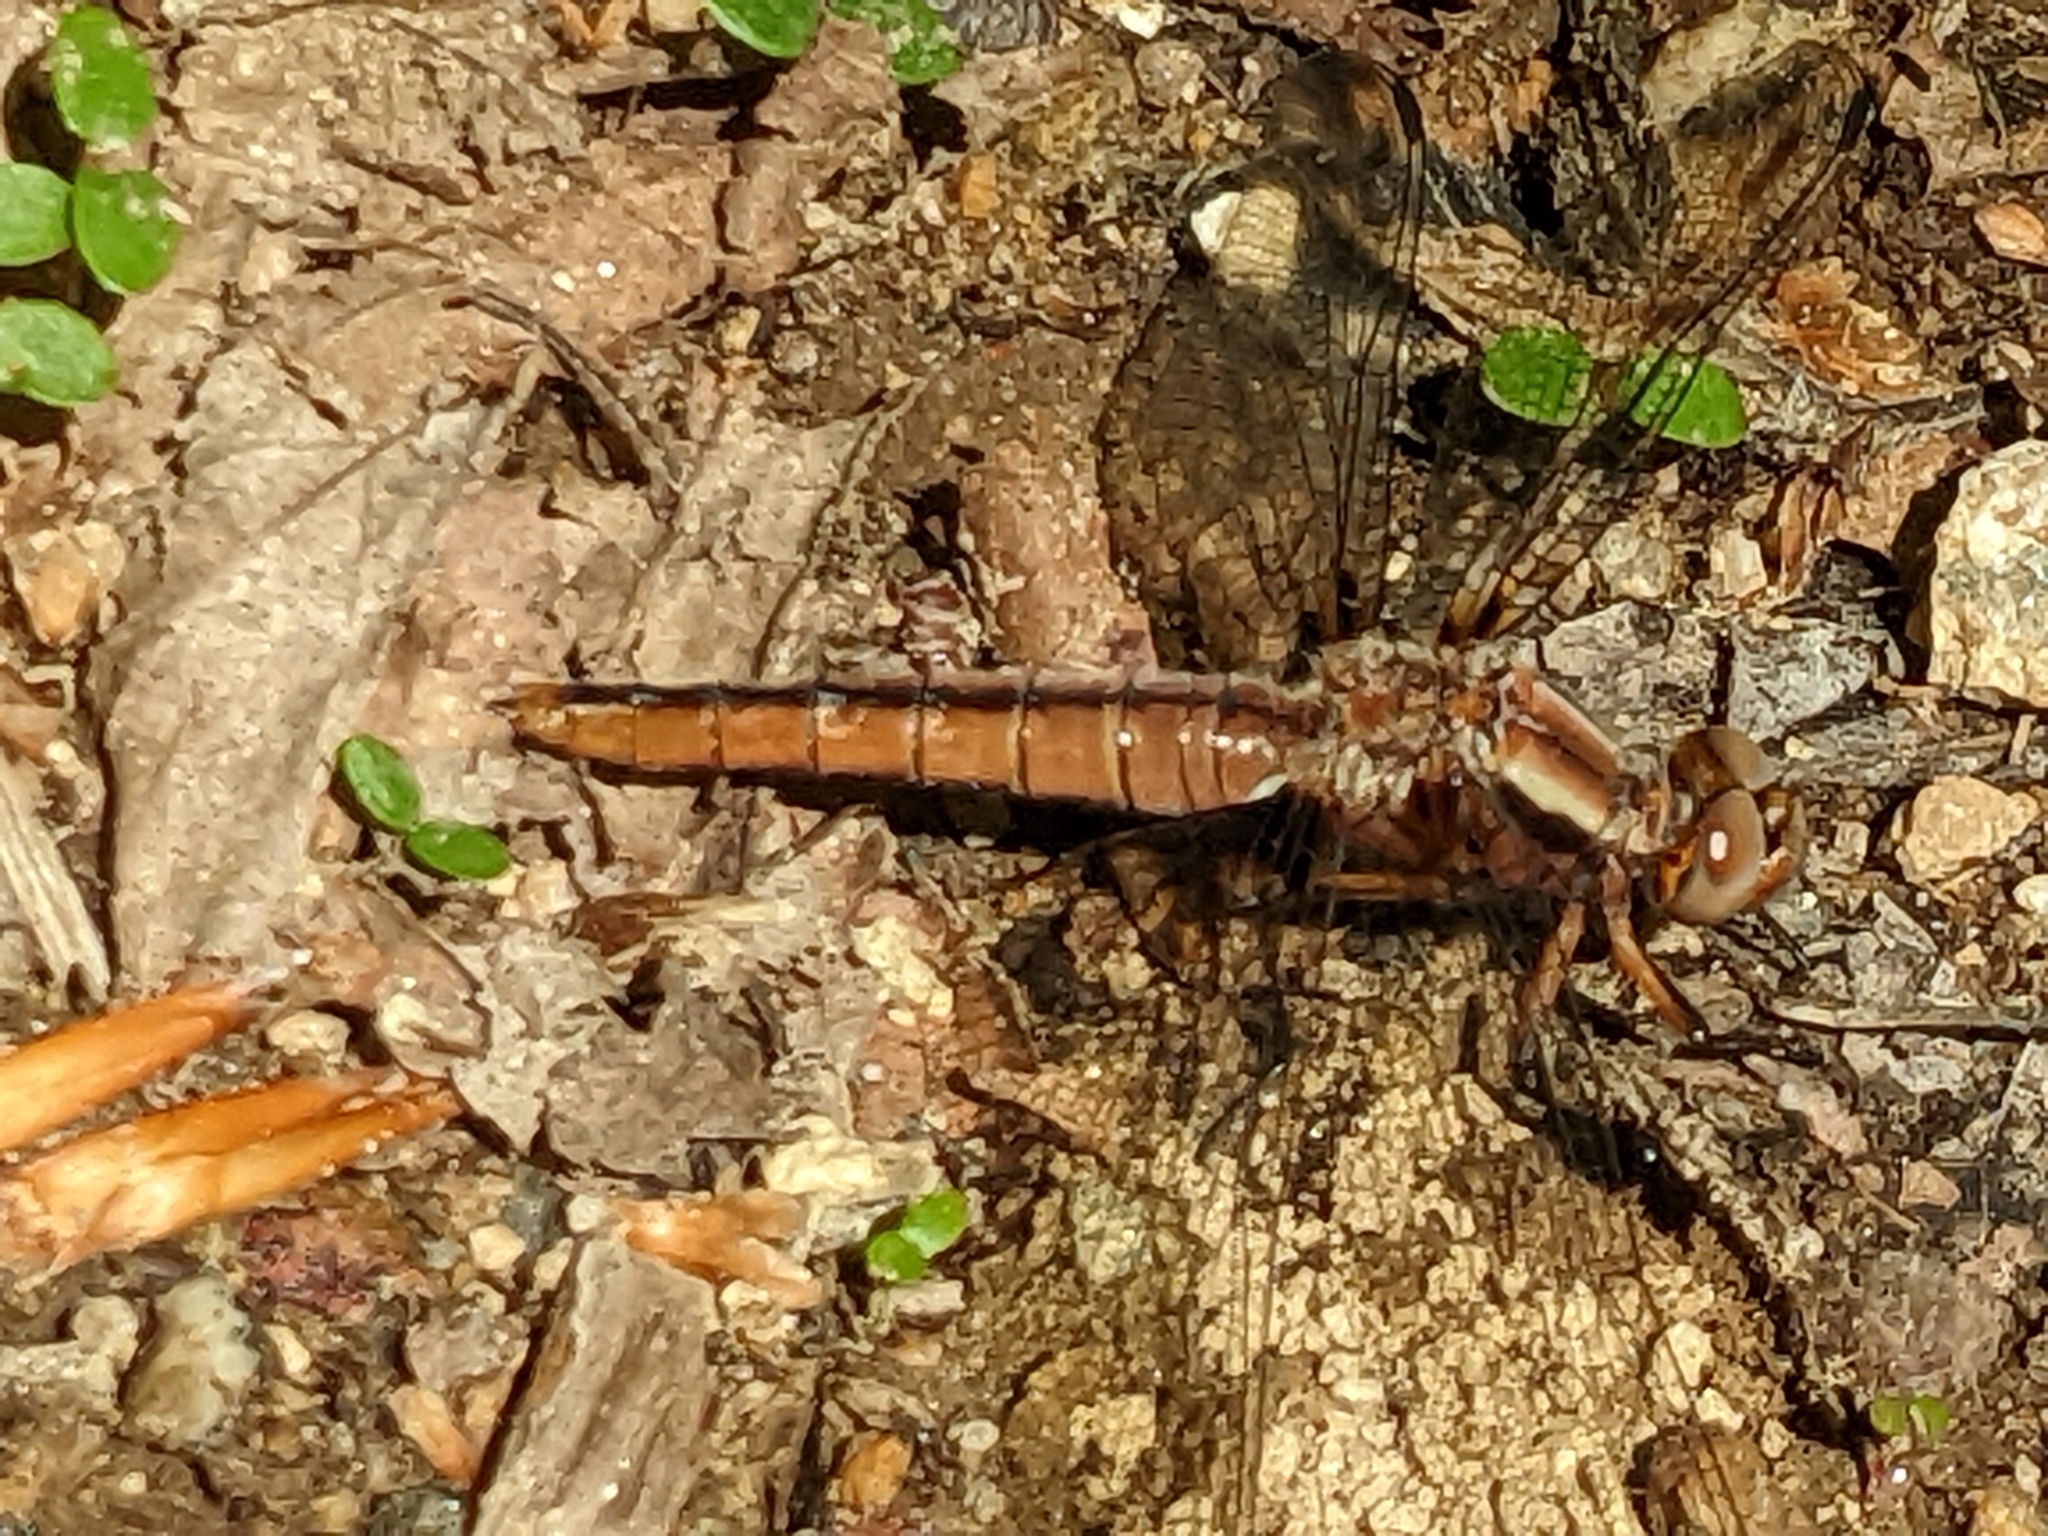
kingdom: Animalia
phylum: Arthropoda
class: Insecta
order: Odonata
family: Libellulidae
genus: Ladona
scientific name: Ladona julia
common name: Chalk-fronted corporal
